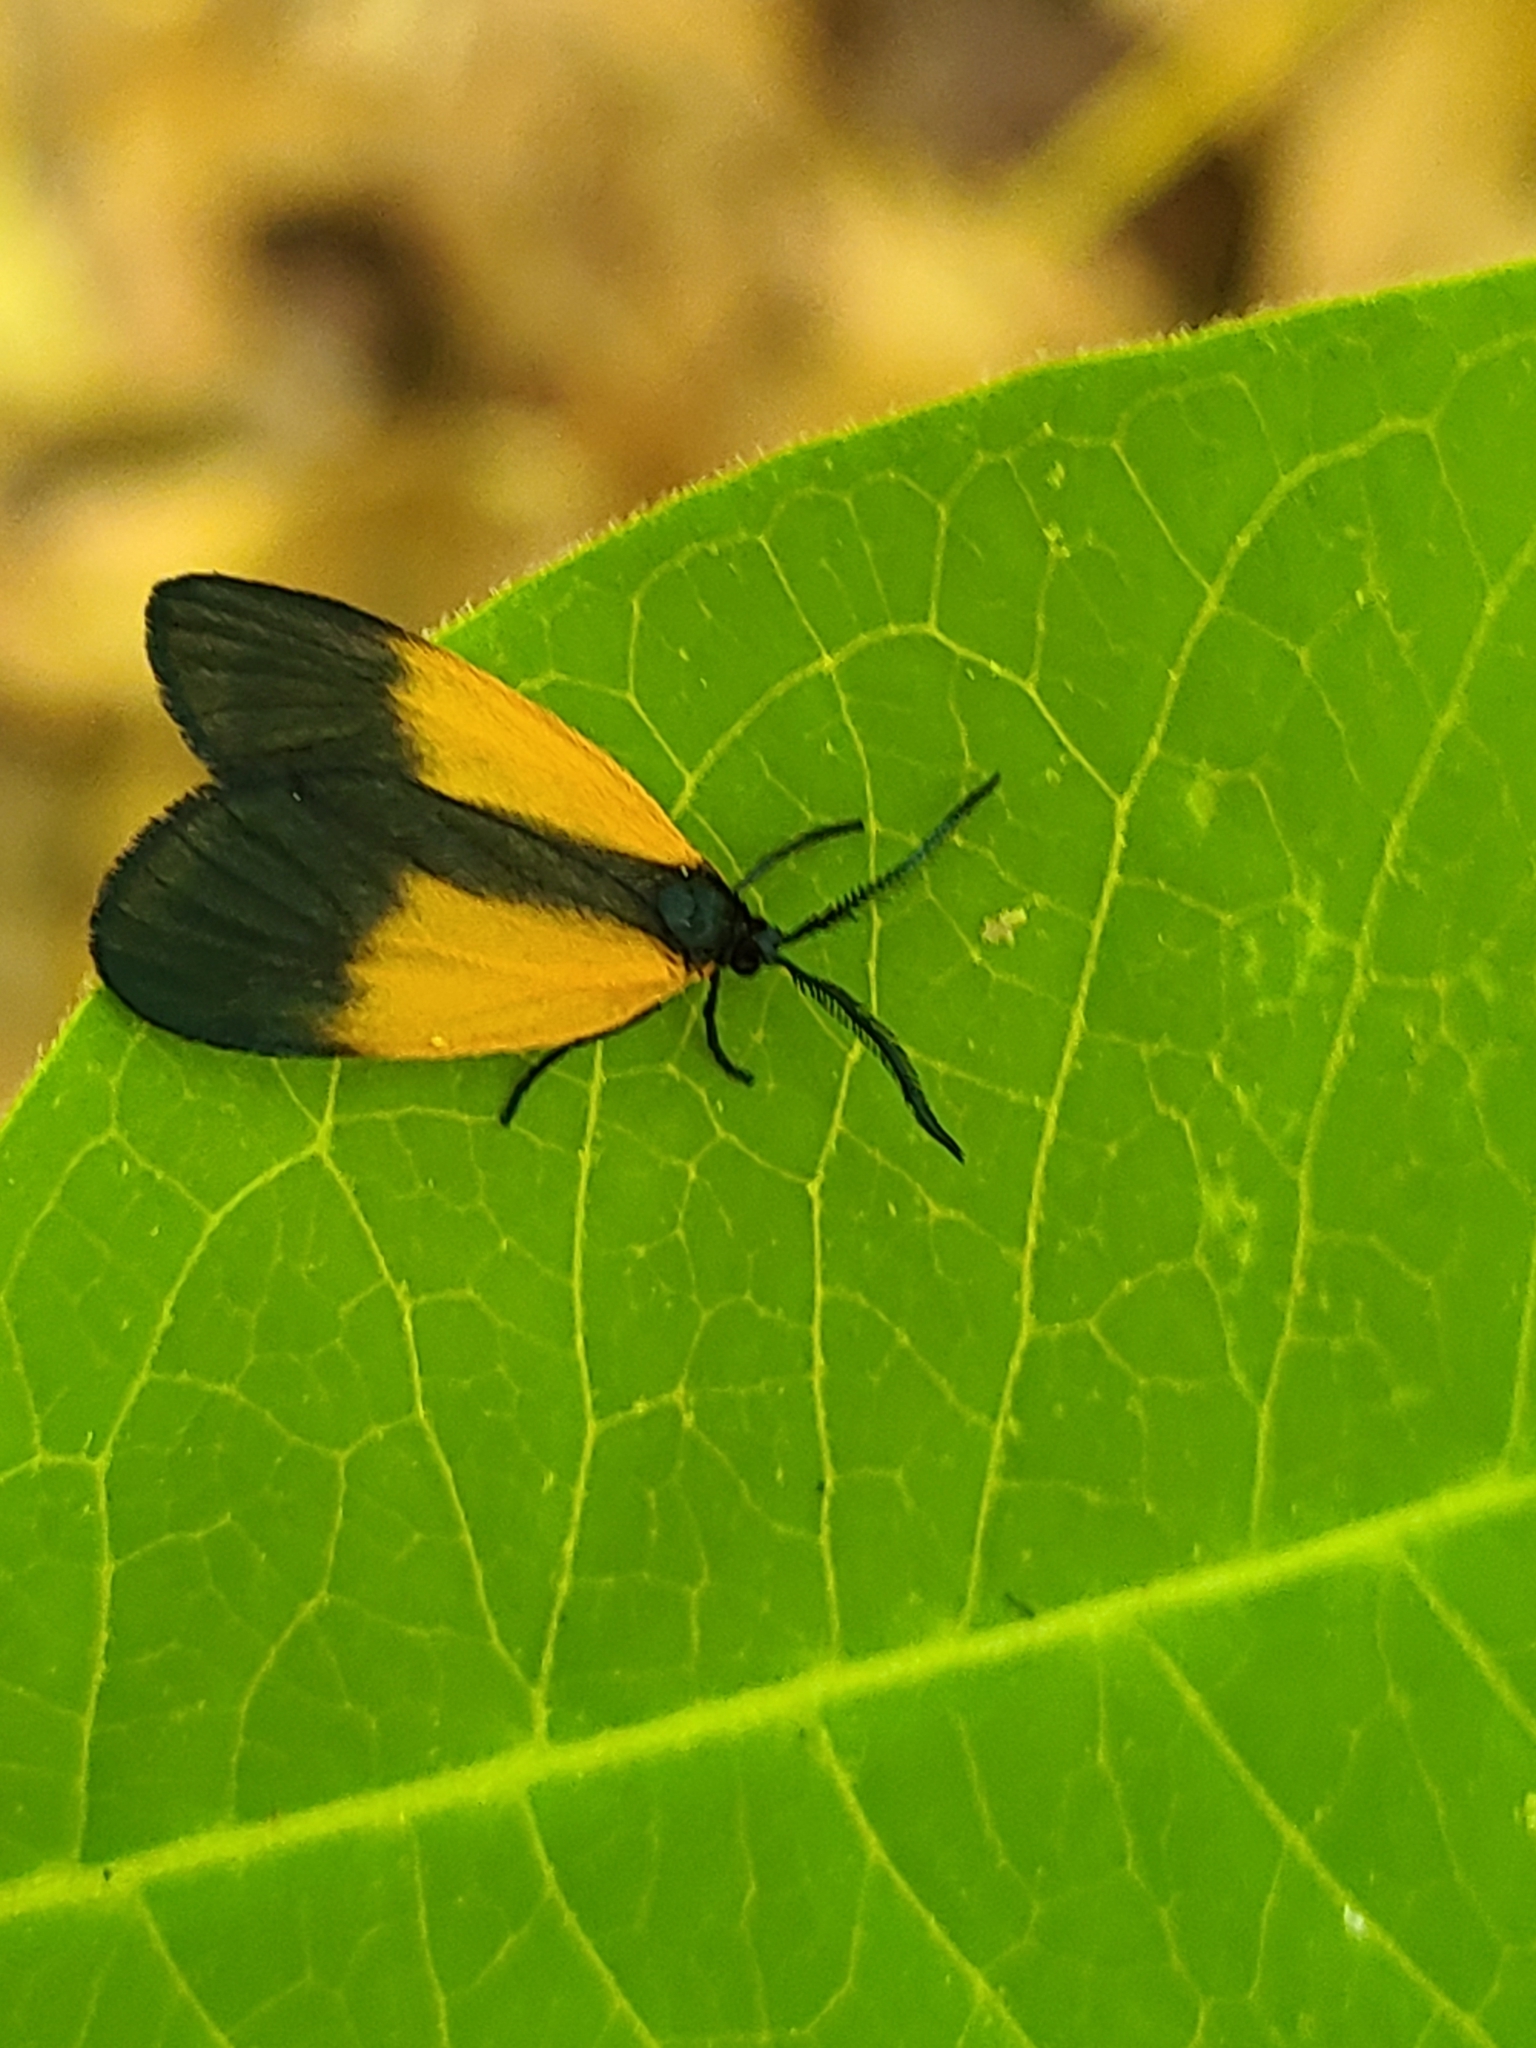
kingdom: Animalia
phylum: Arthropoda
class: Insecta
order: Lepidoptera
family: Zygaenidae
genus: Malthaca
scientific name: Malthaca dimidiata
